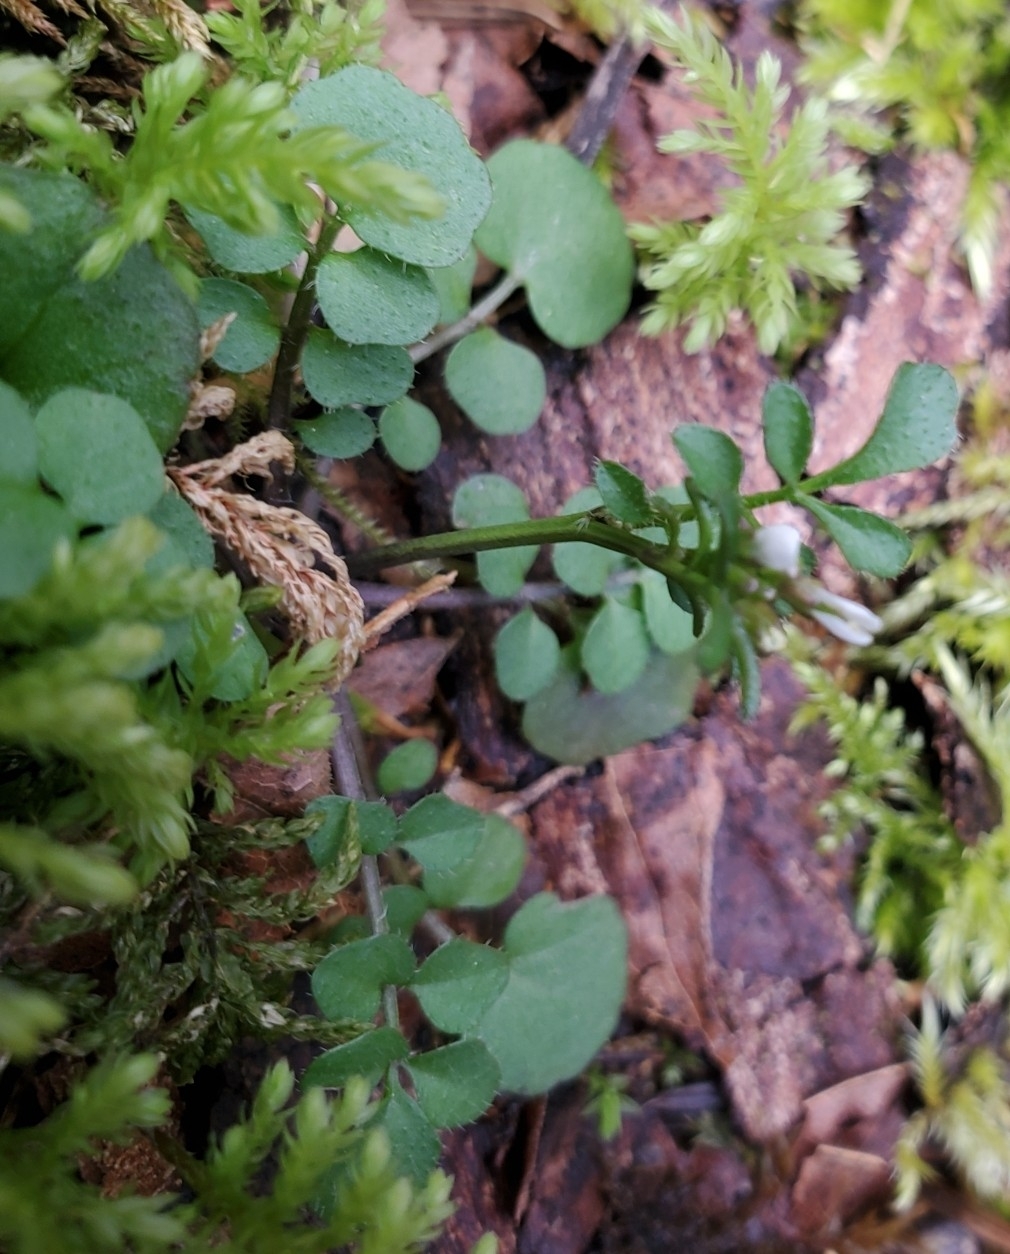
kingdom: Plantae
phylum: Tracheophyta
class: Magnoliopsida
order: Brassicales
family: Brassicaceae
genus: Cardamine
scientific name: Cardamine hirsuta
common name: Hairy bittercress
